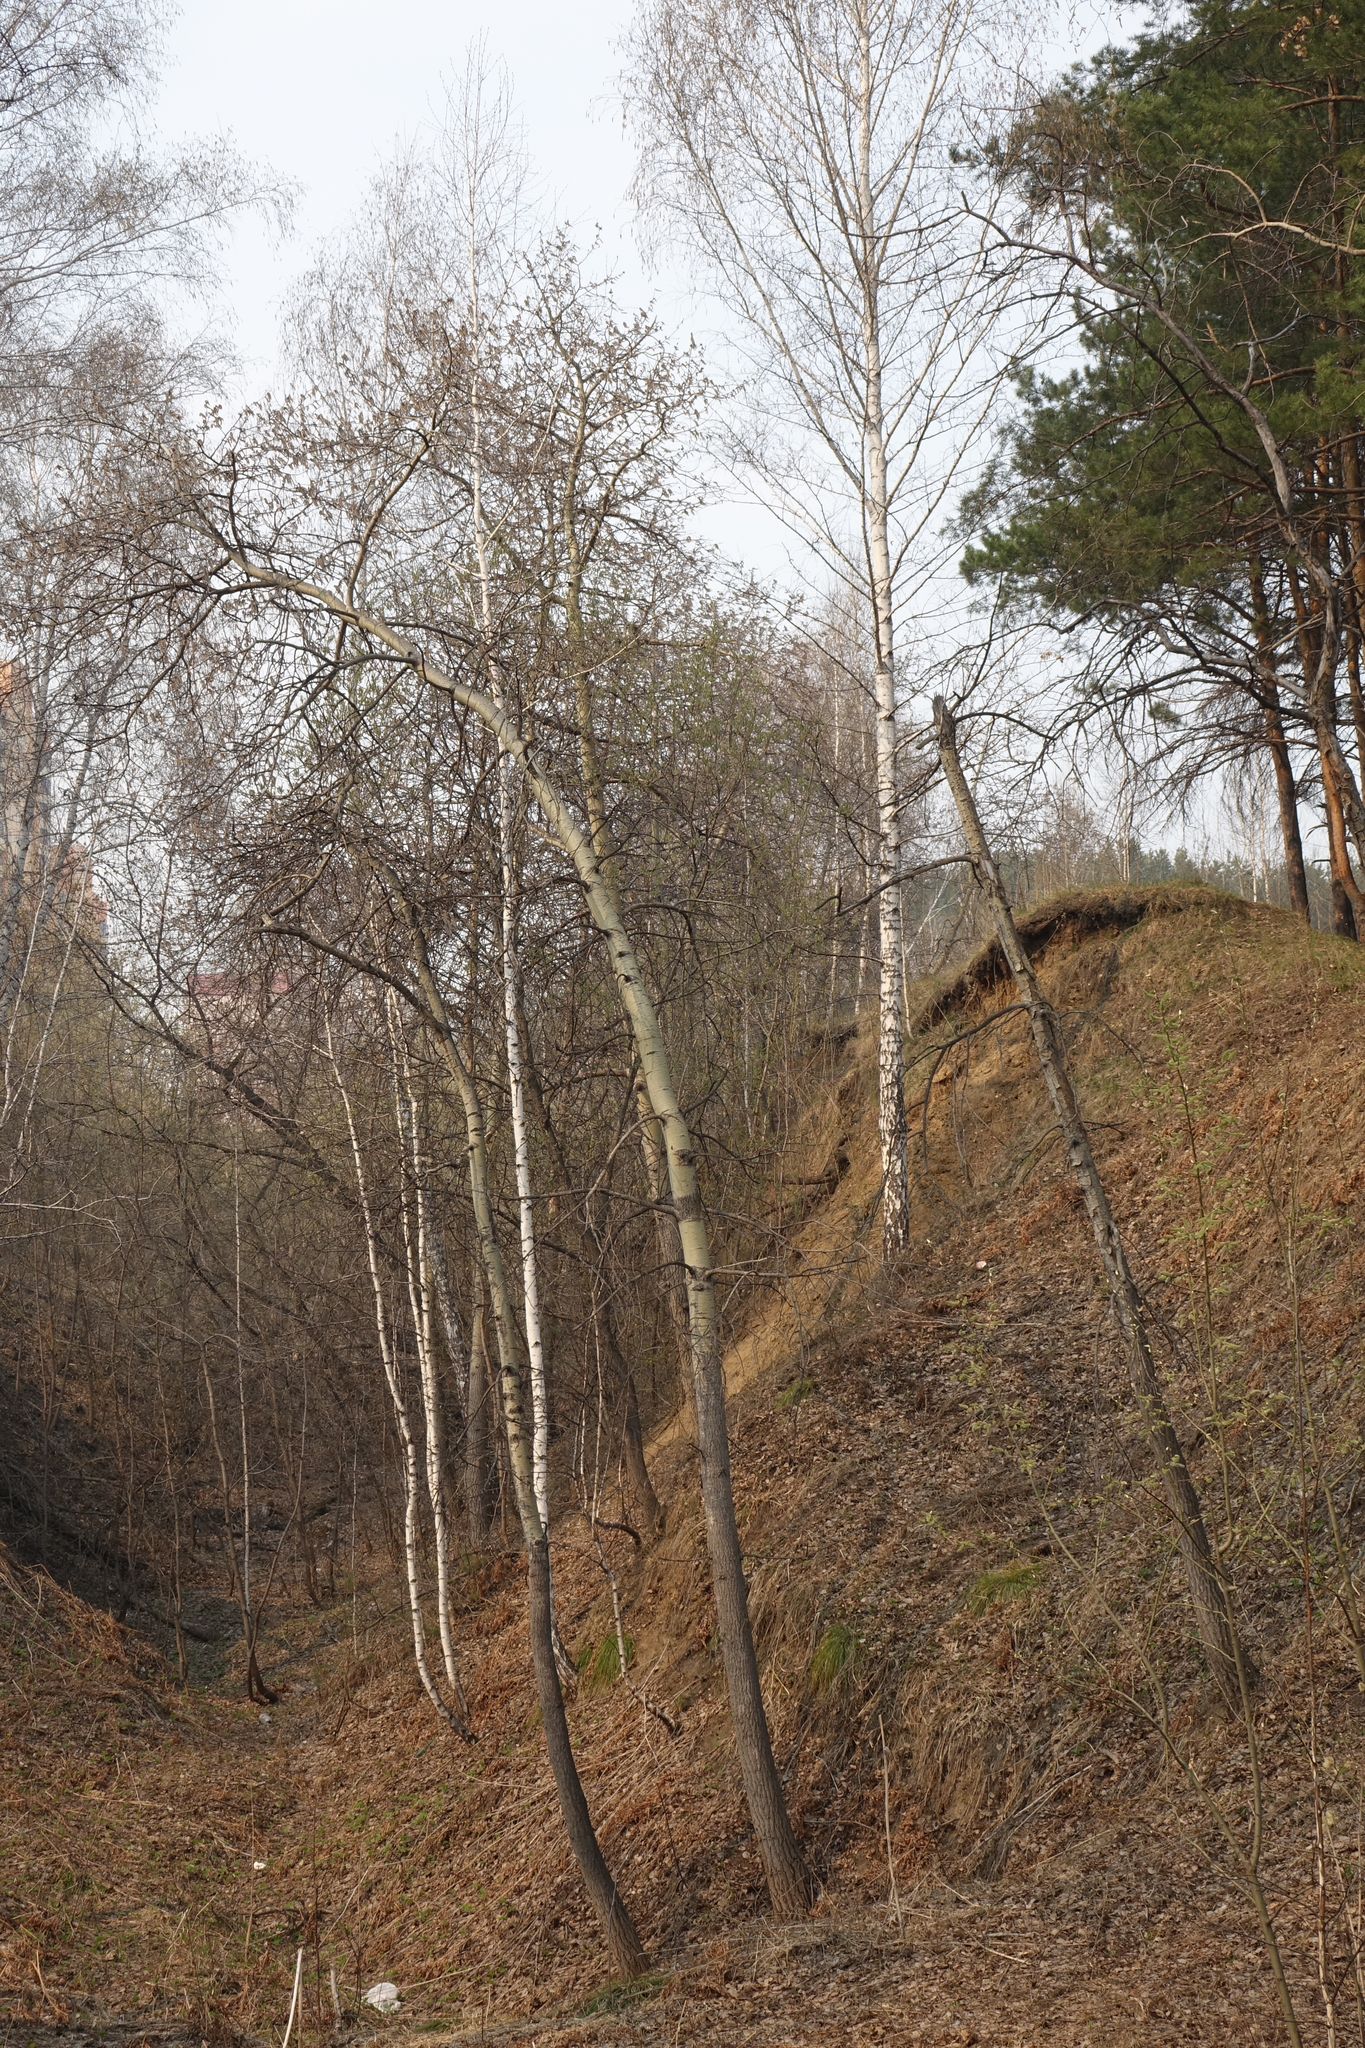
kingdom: Plantae
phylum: Tracheophyta
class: Magnoliopsida
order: Malpighiales
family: Salicaceae
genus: Populus
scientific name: Populus tremula
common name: European aspen
